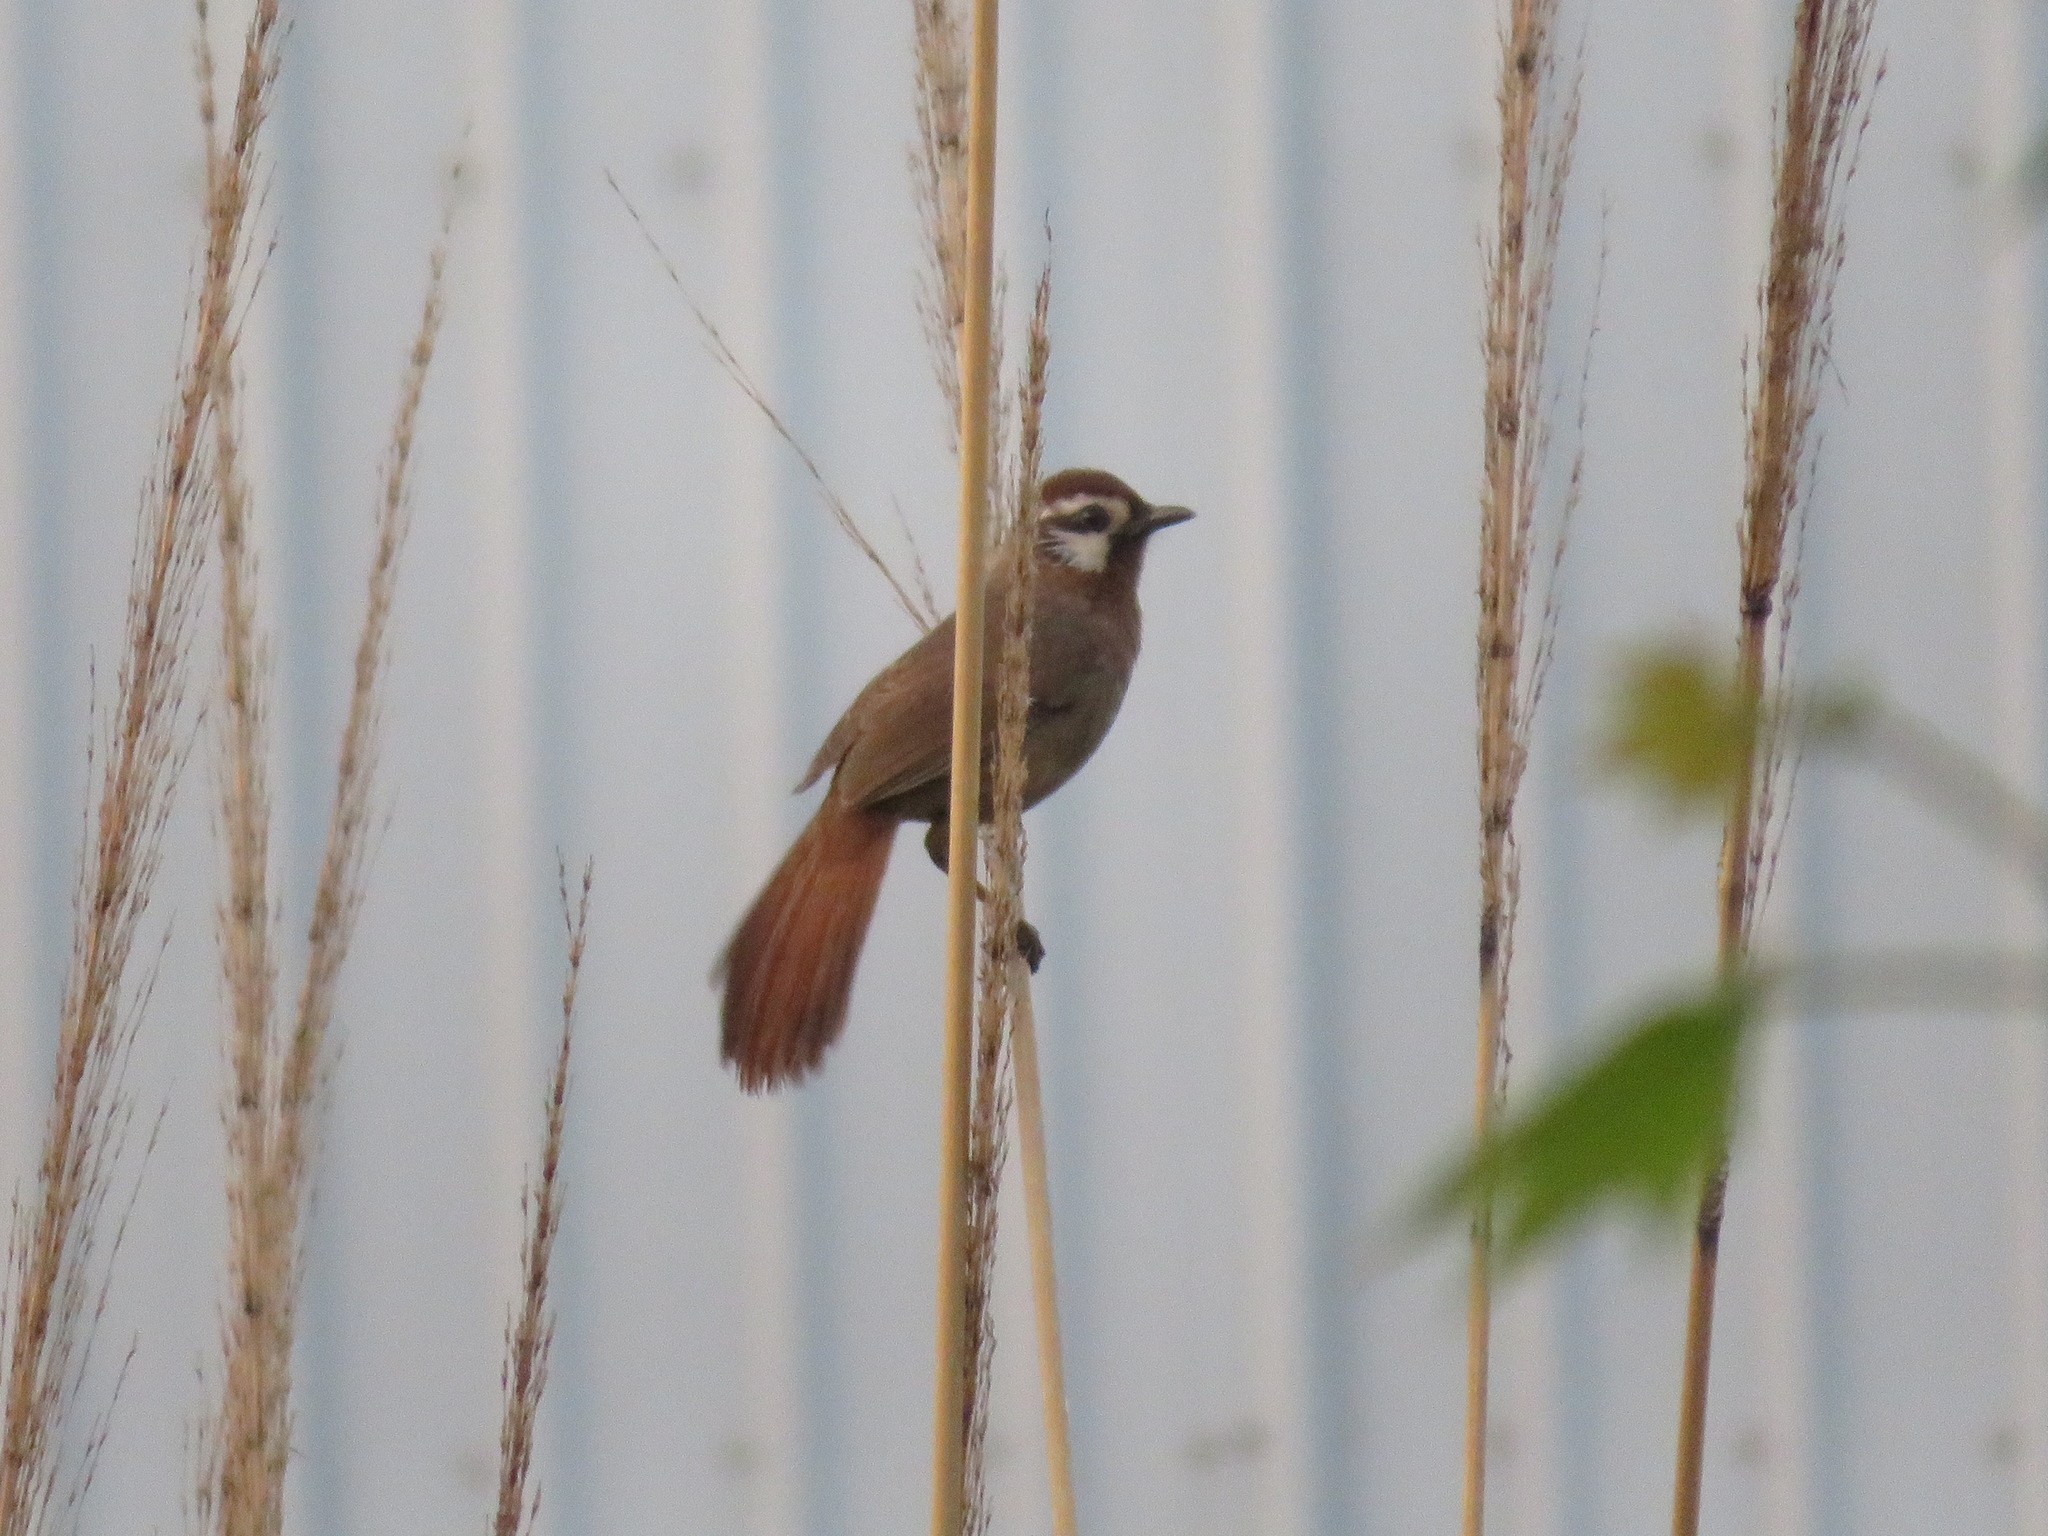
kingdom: Animalia
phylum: Chordata
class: Aves
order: Passeriformes
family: Leiothrichidae
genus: Pterorhinus
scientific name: Pterorhinus sannio
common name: White-browed laughingthrush
